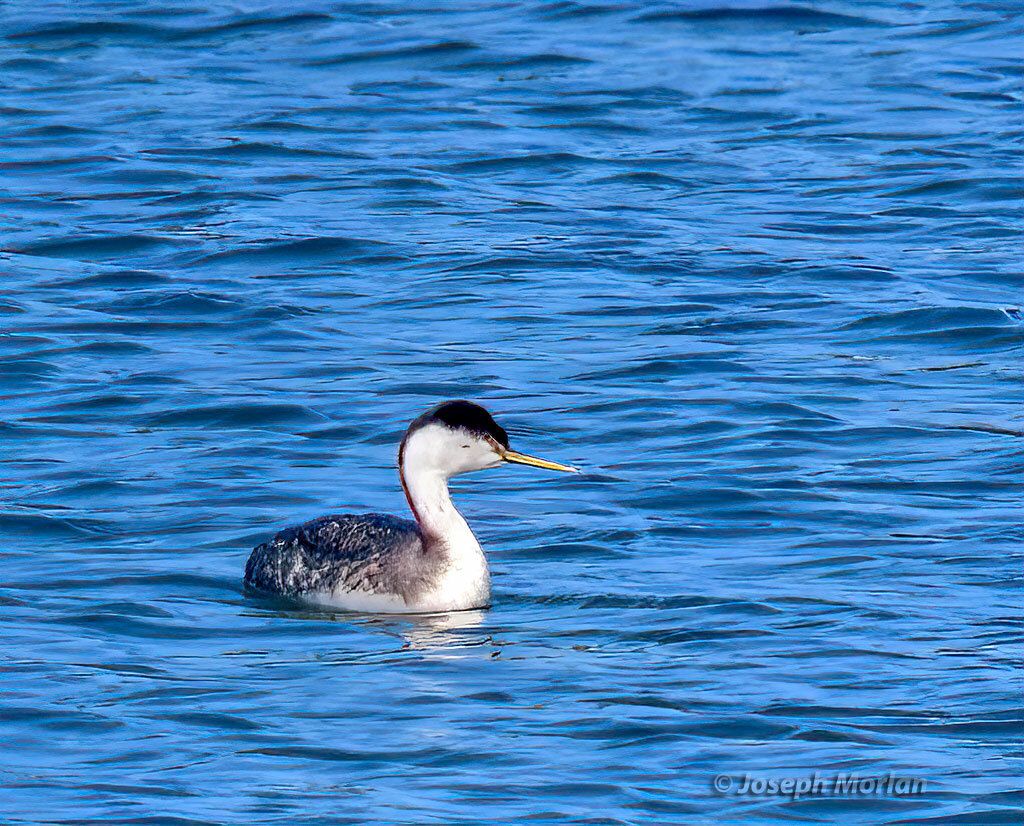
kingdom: Animalia
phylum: Chordata
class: Aves
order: Podicipediformes
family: Podicipedidae
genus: Aechmophorus
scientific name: Aechmophorus occidentalis
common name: Western grebe
